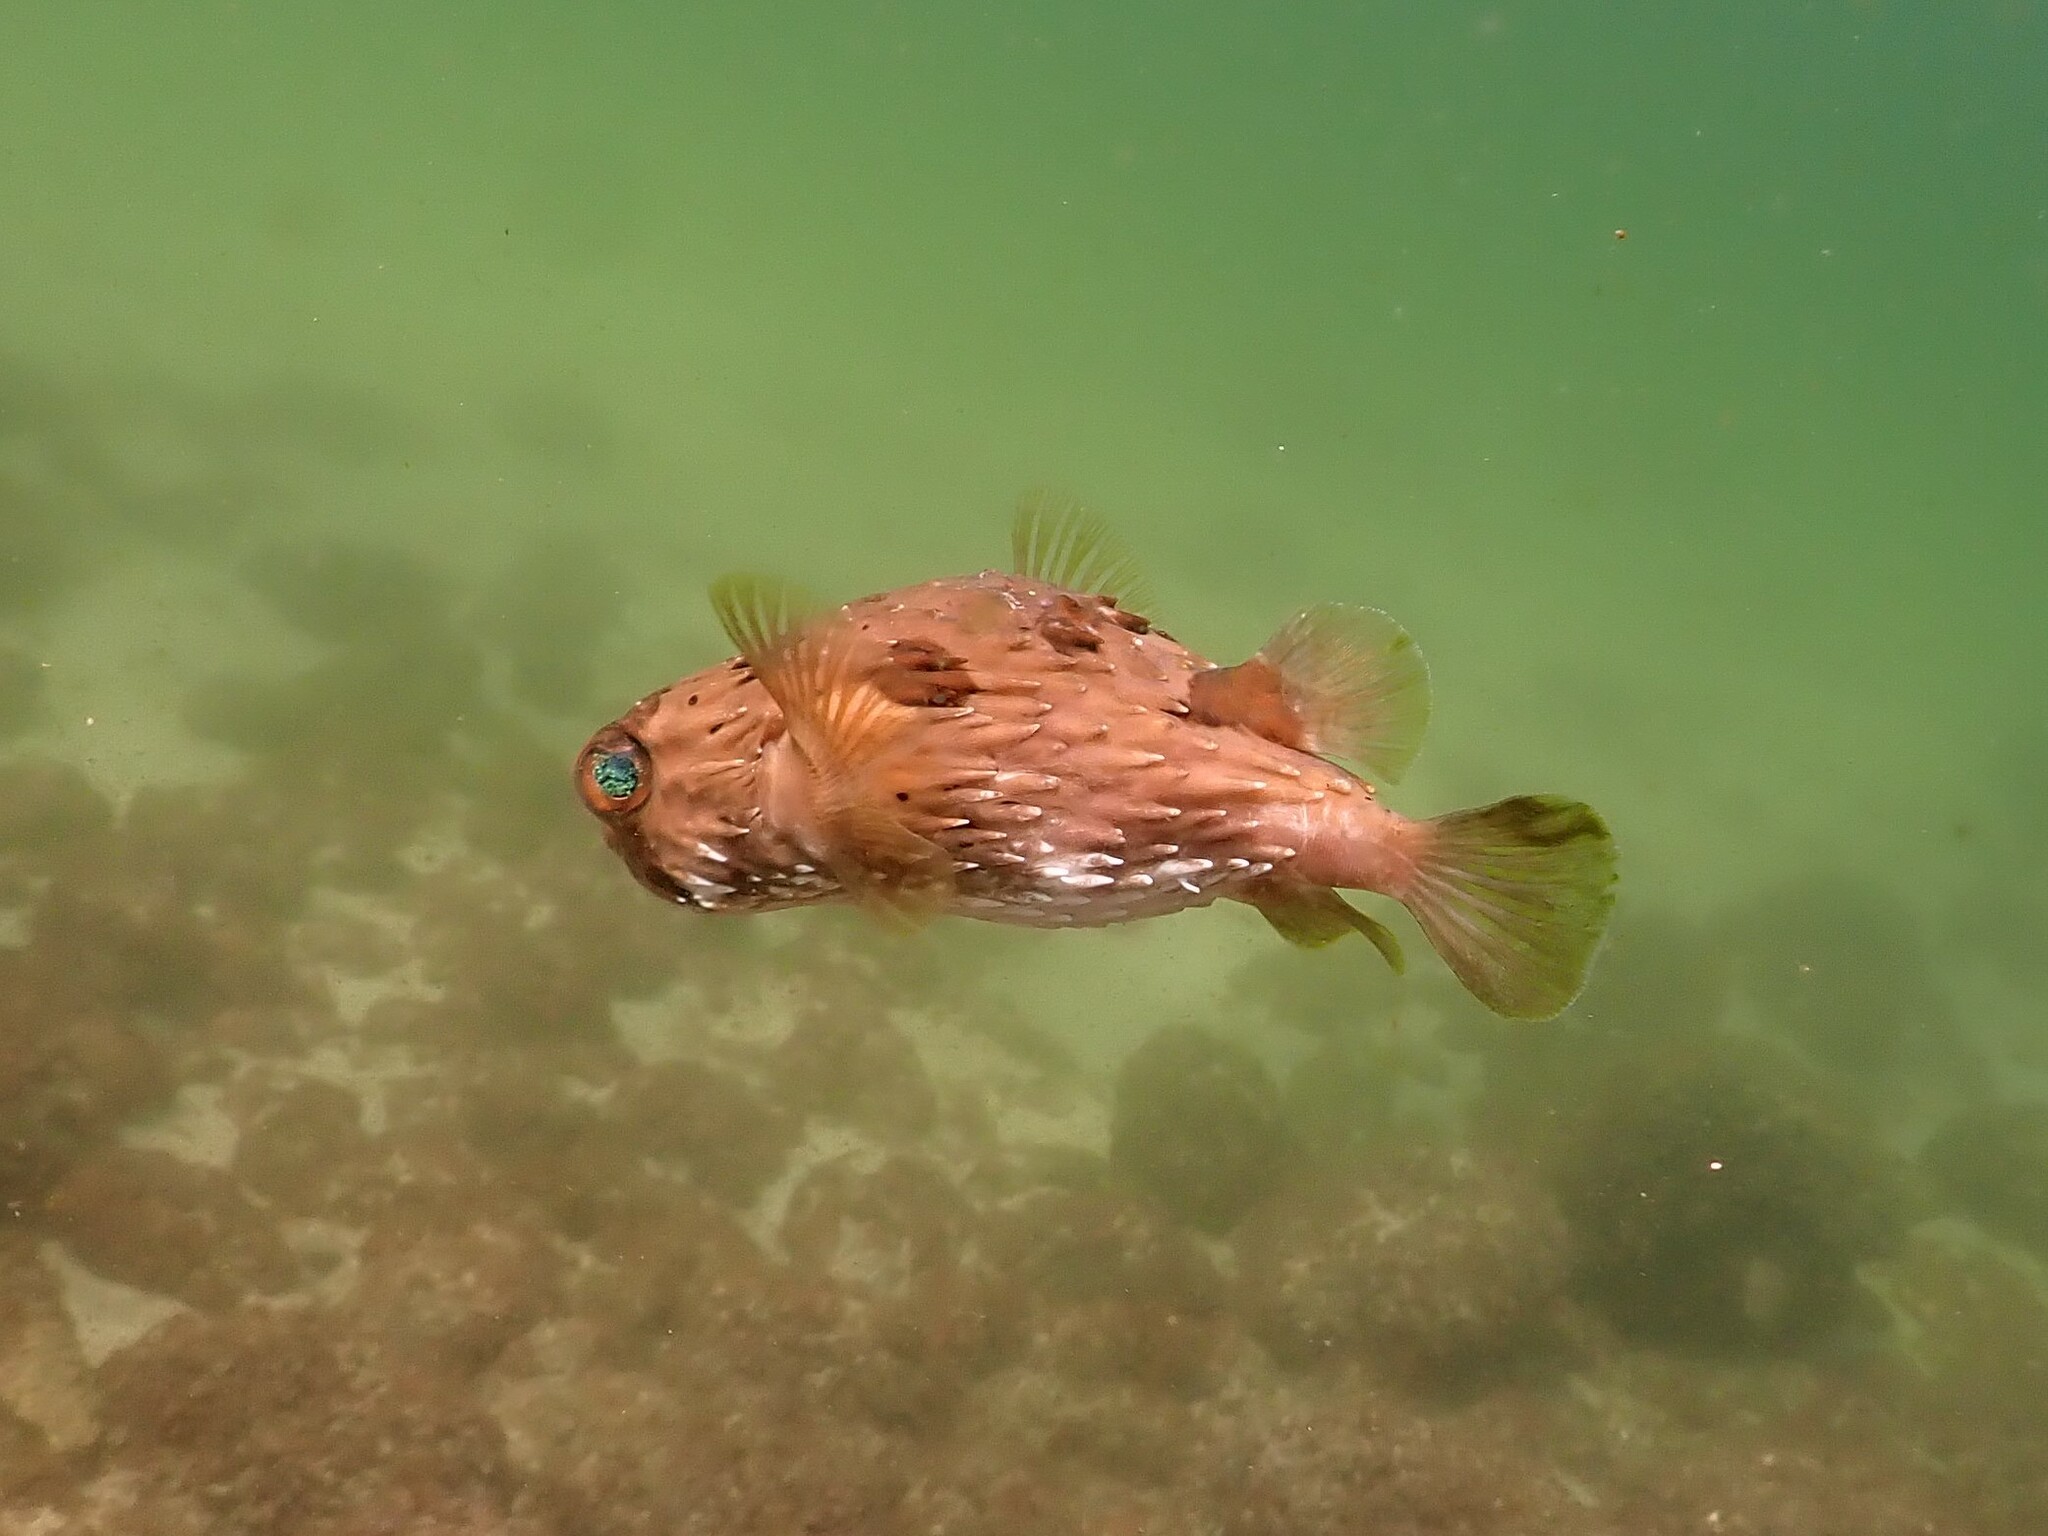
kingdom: Animalia
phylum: Chordata
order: Tetraodontiformes
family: Diodontidae
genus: Diodon
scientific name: Diodon holocanthus
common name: Balloonfish
